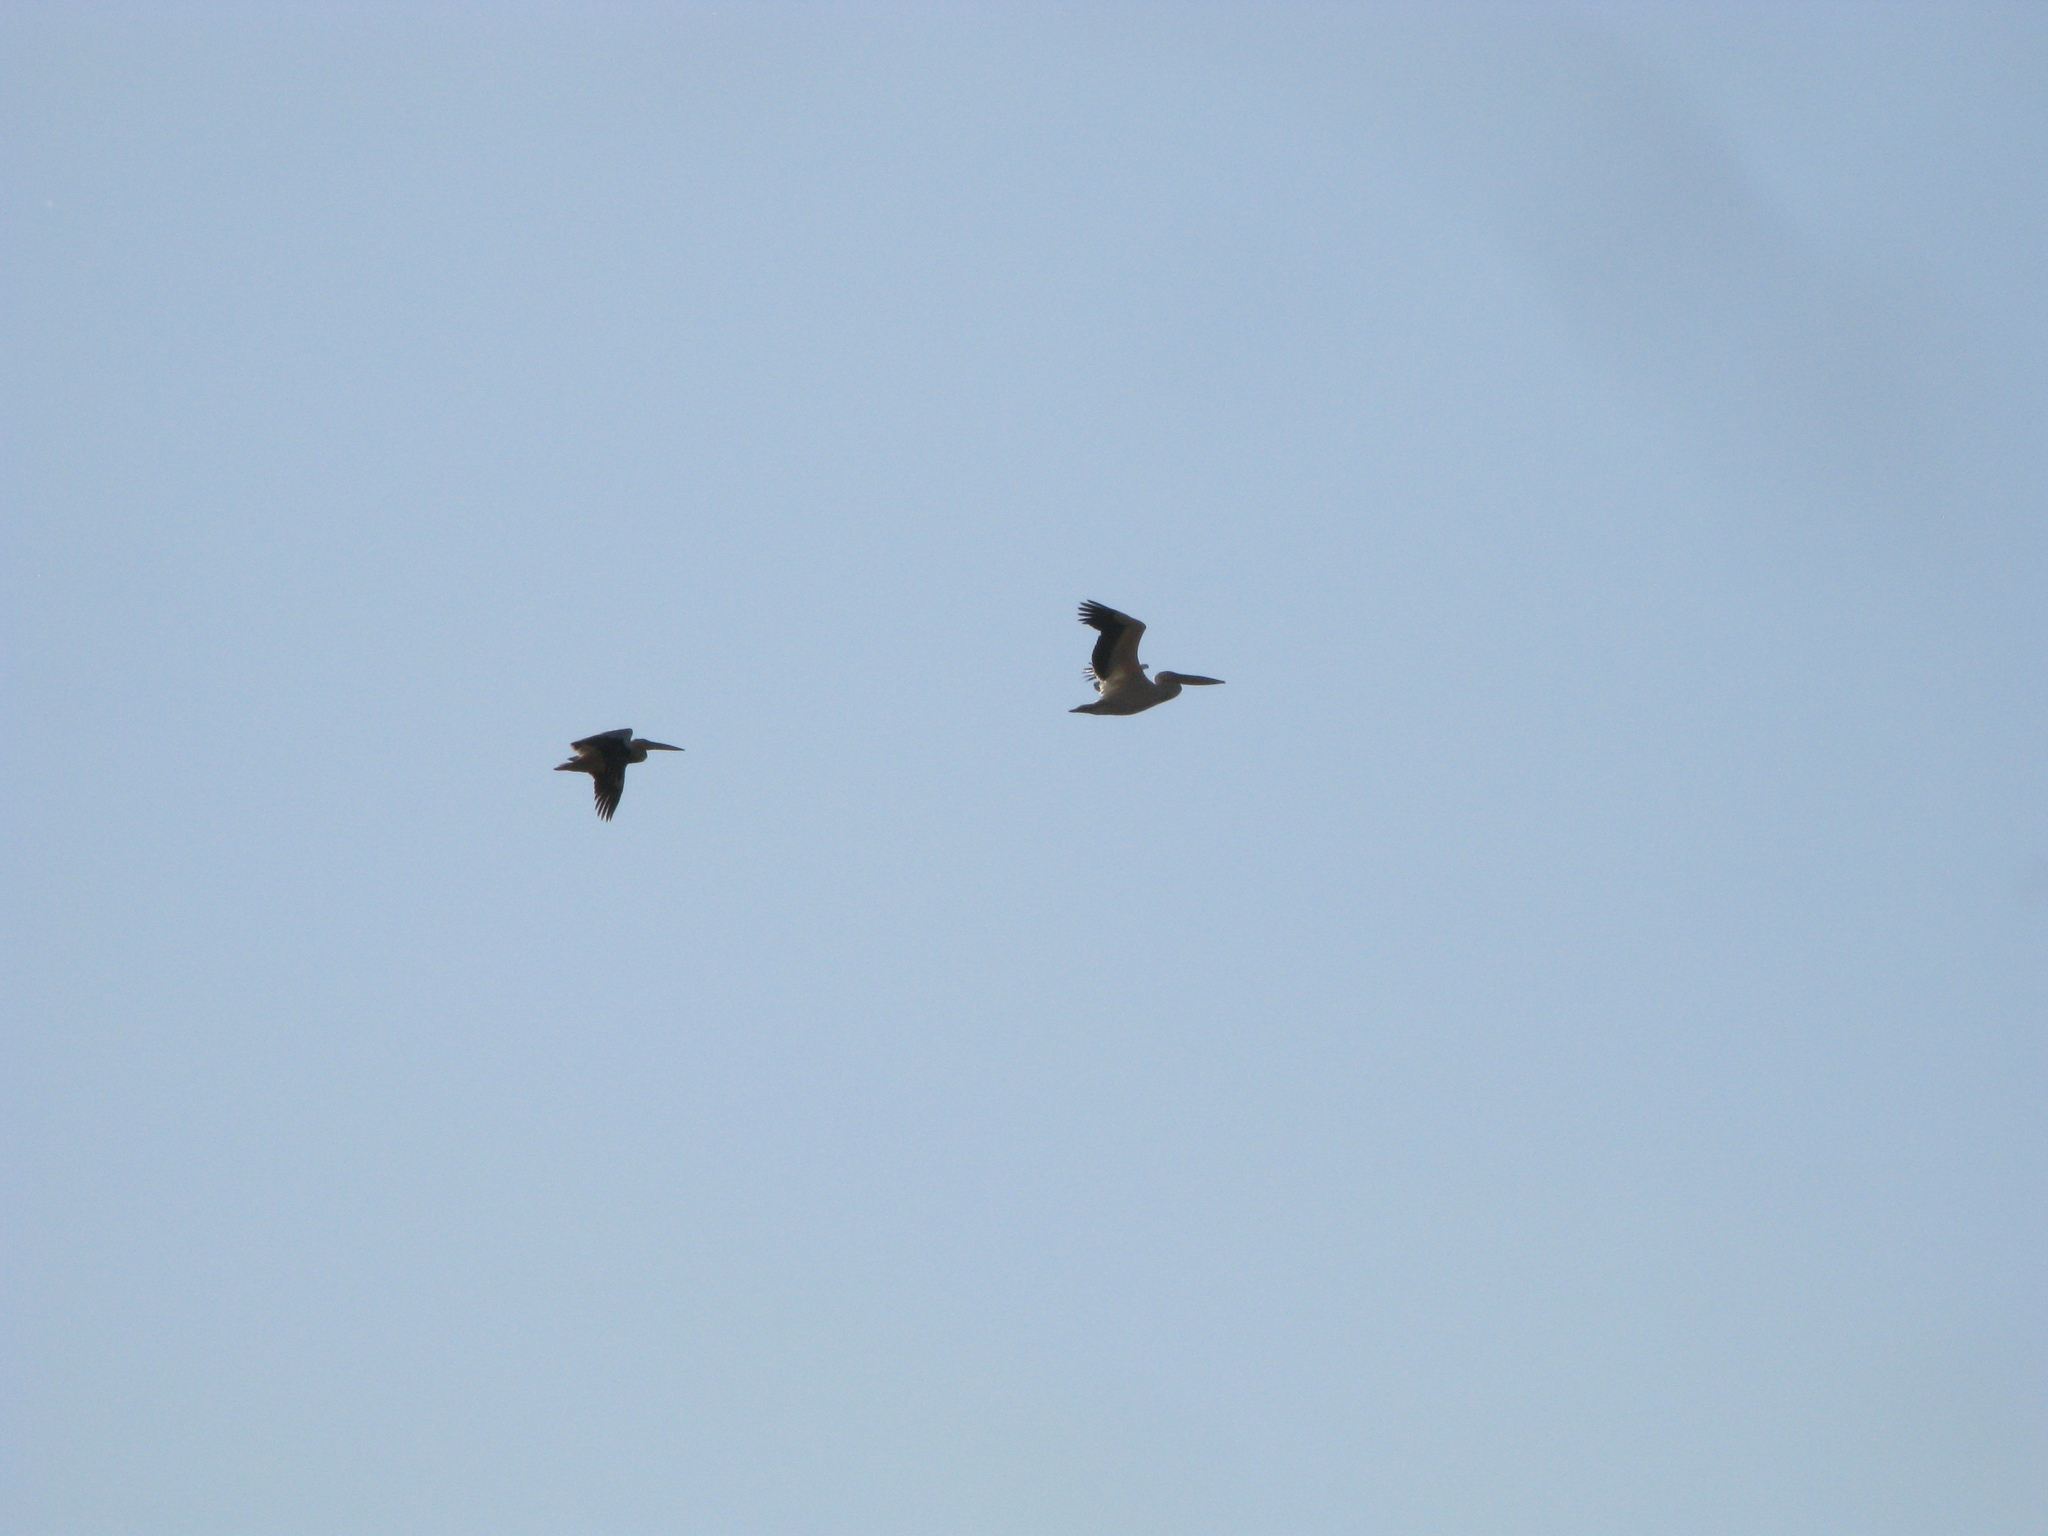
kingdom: Animalia
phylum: Chordata
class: Aves
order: Pelecaniformes
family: Pelecanidae
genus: Pelecanus
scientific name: Pelecanus onocrotalus
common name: Great white pelican
